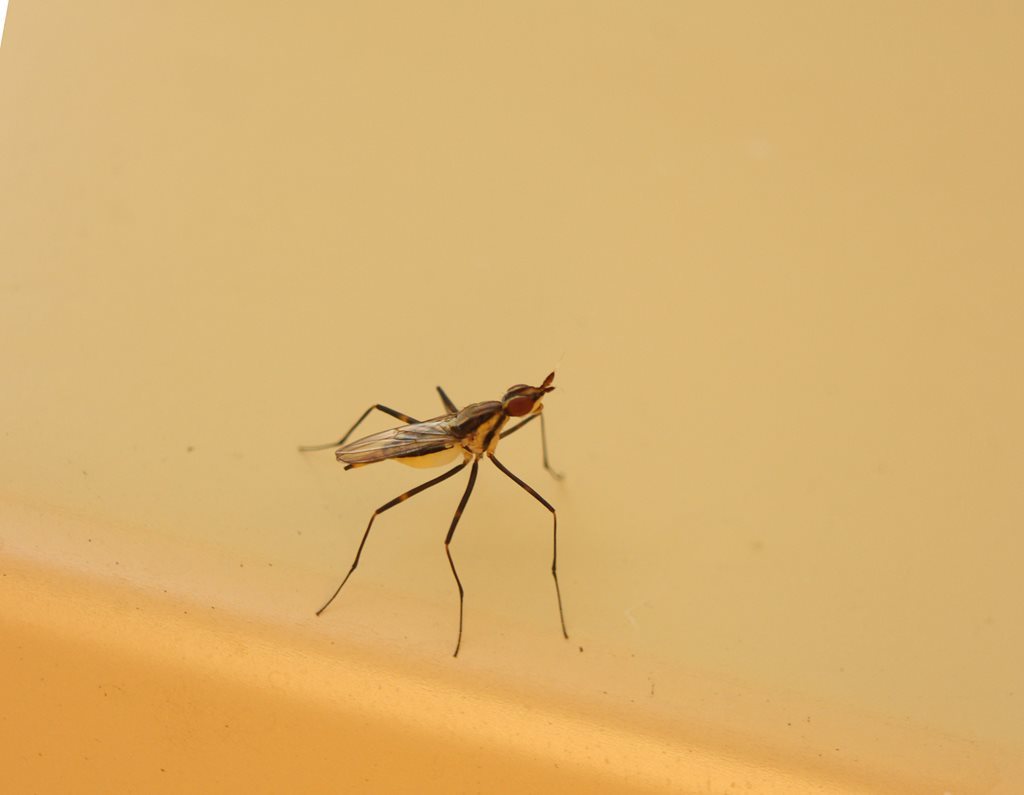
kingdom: Animalia
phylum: Arthropoda
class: Insecta
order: Diptera
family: Neriidae
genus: Derocephalus
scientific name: Derocephalus angusticollis
